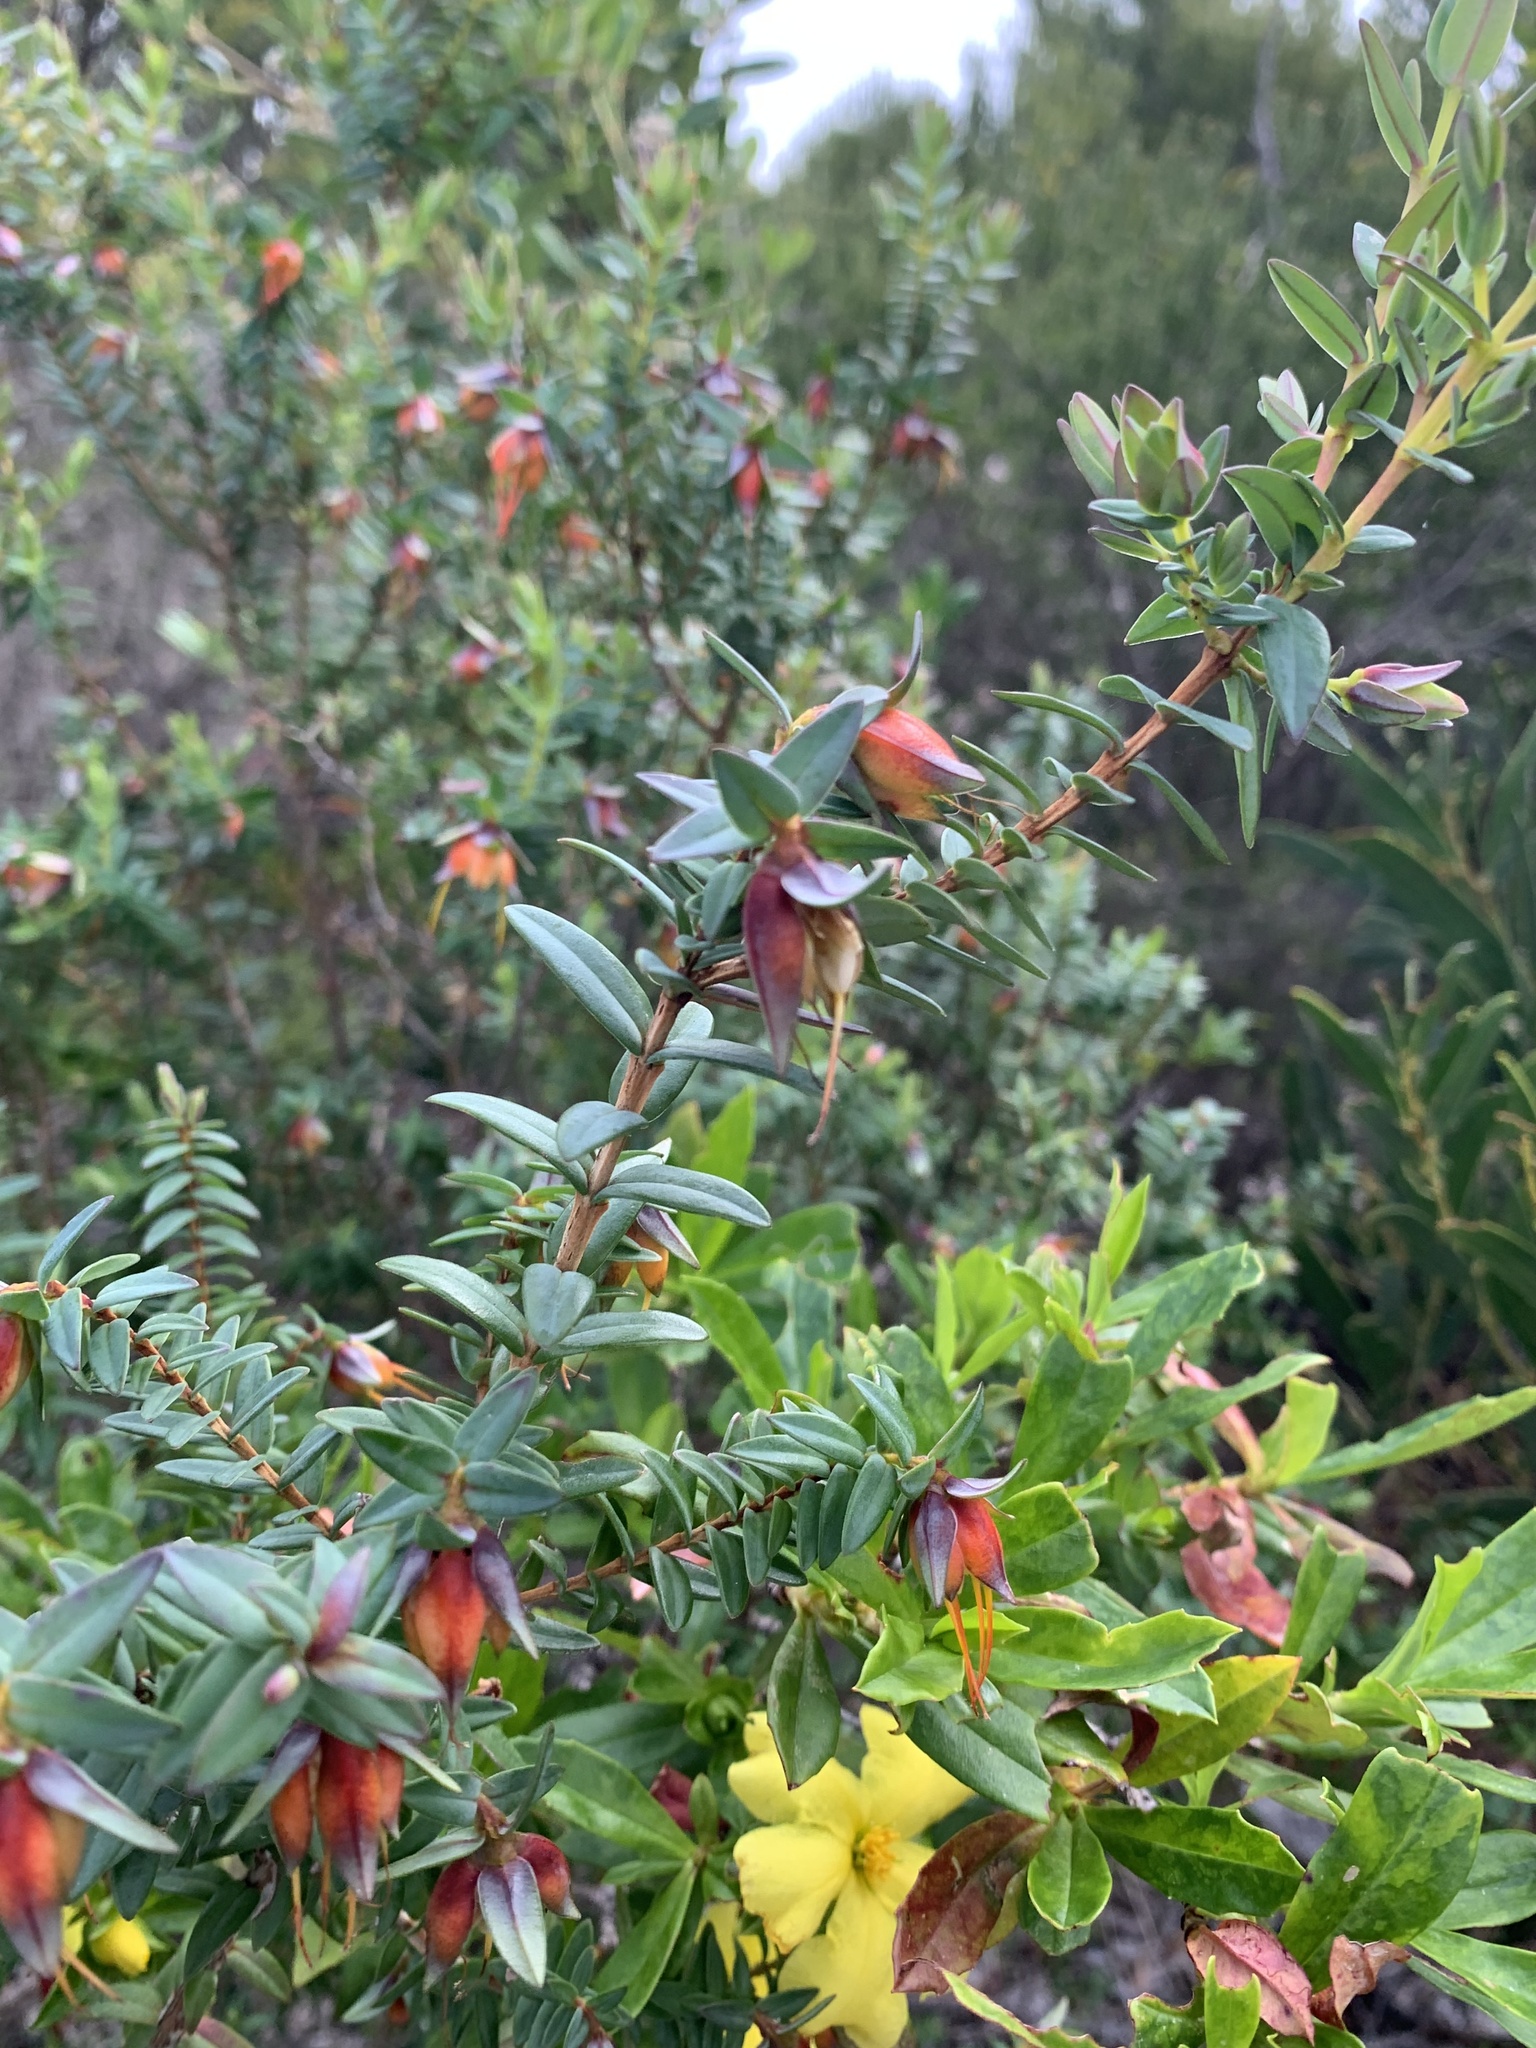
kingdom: Plantae
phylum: Tracheophyta
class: Magnoliopsida
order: Myrtales
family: Myrtaceae
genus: Darwinia
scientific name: Darwinia citriodora
